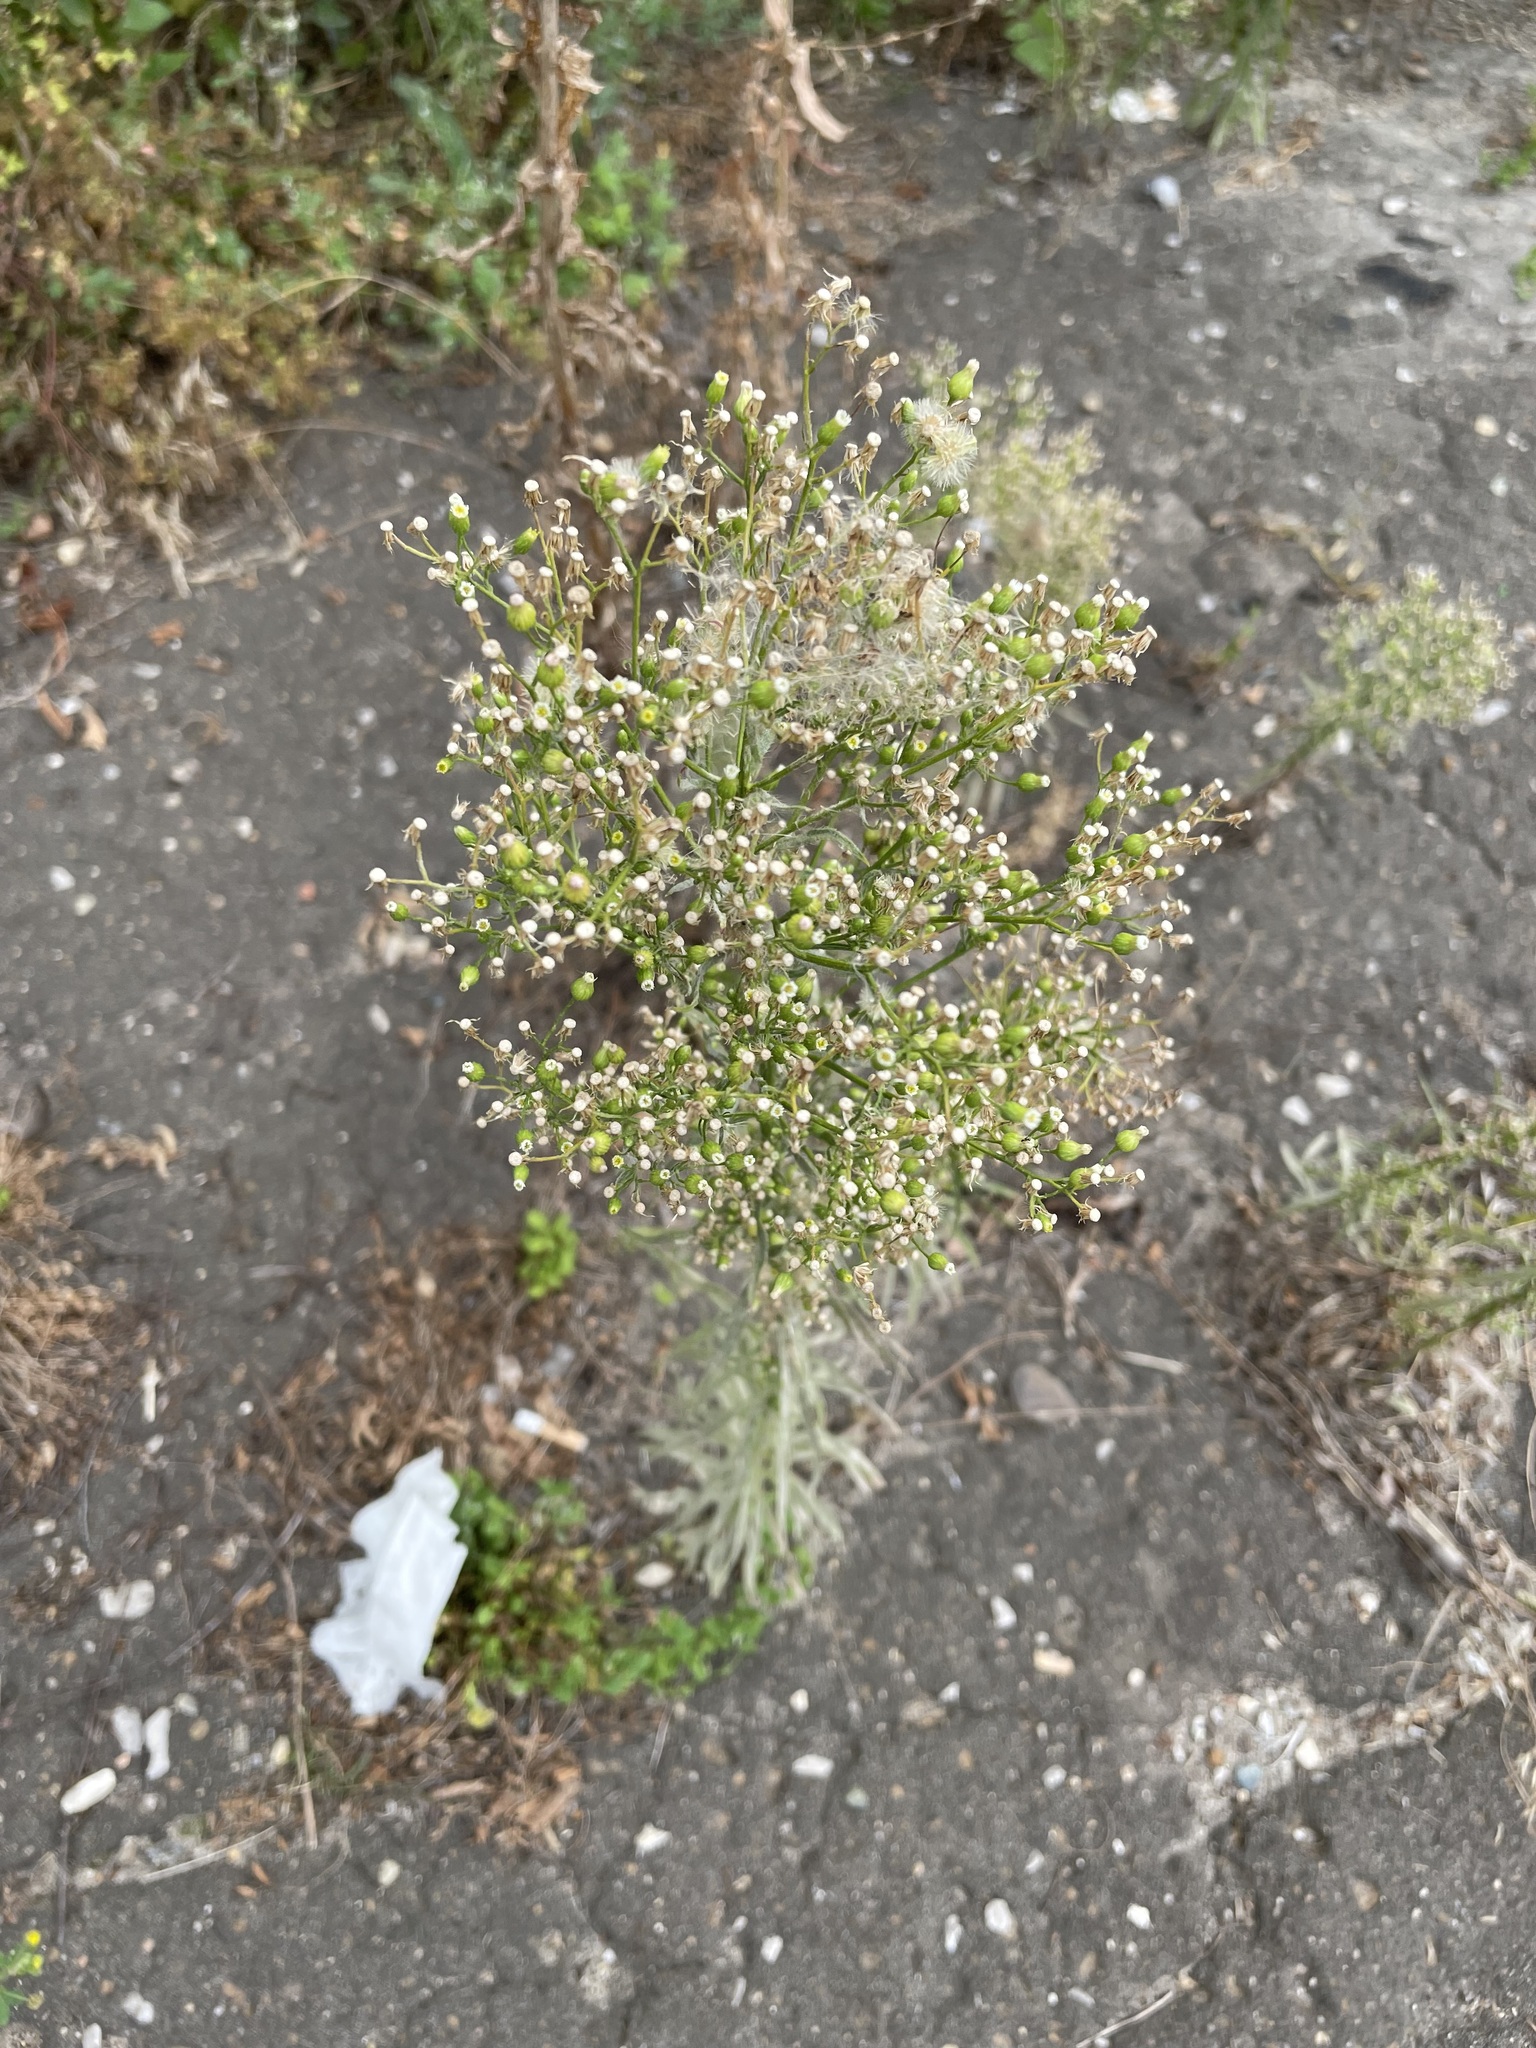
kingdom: Plantae
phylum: Tracheophyta
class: Magnoliopsida
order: Asterales
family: Asteraceae
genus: Erigeron
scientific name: Erigeron canadensis
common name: Canadian fleabane
